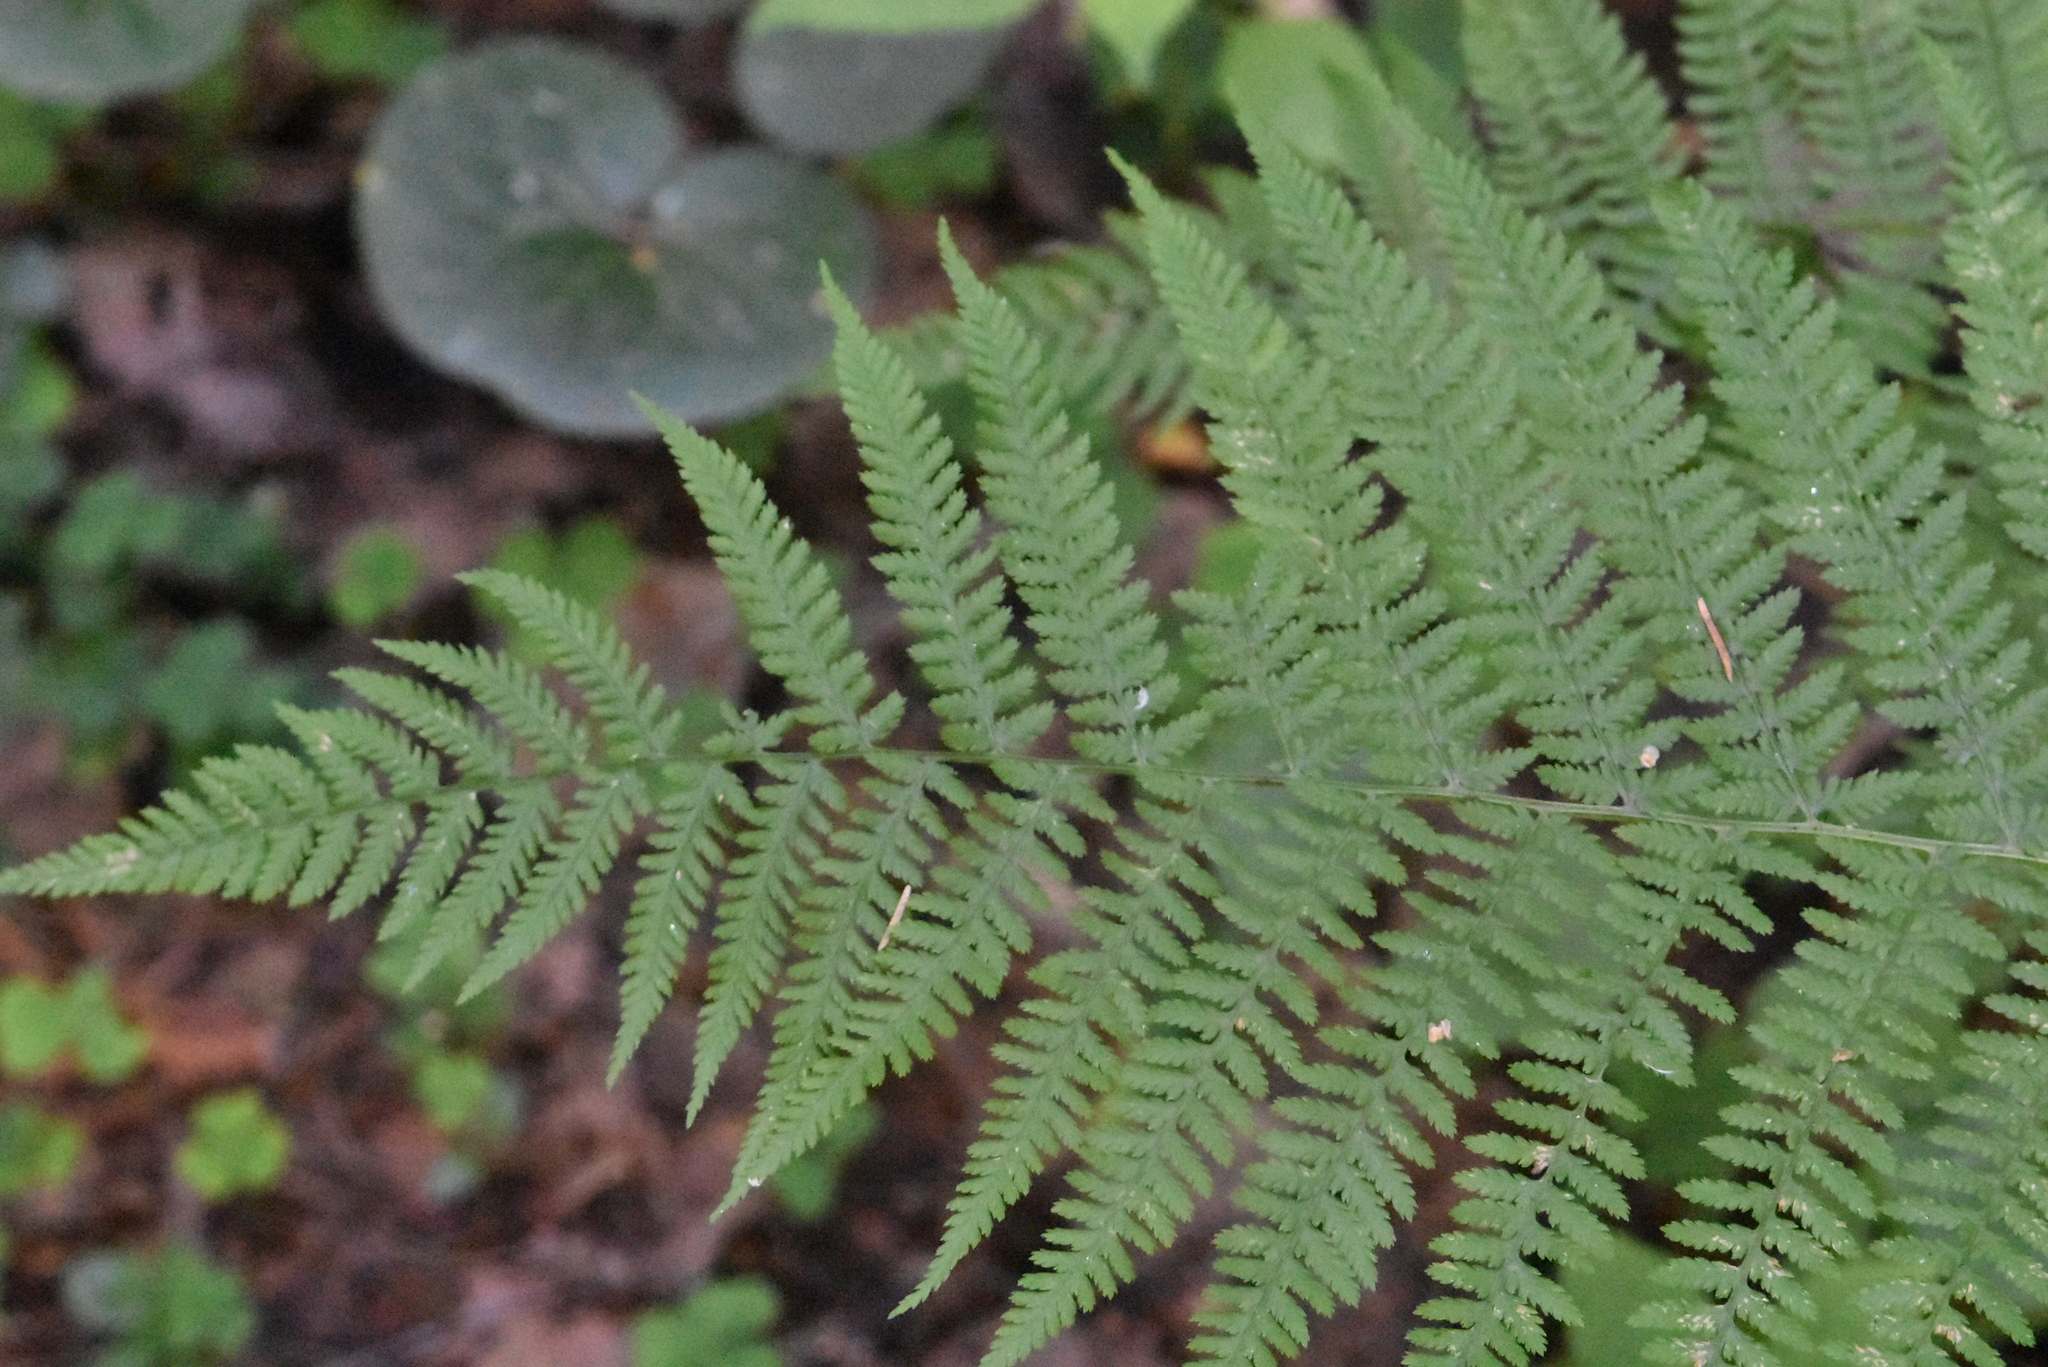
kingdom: Plantae
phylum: Tracheophyta
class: Polypodiopsida
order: Polypodiales
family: Athyriaceae
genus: Athyrium
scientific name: Athyrium filix-femina
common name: Lady fern
